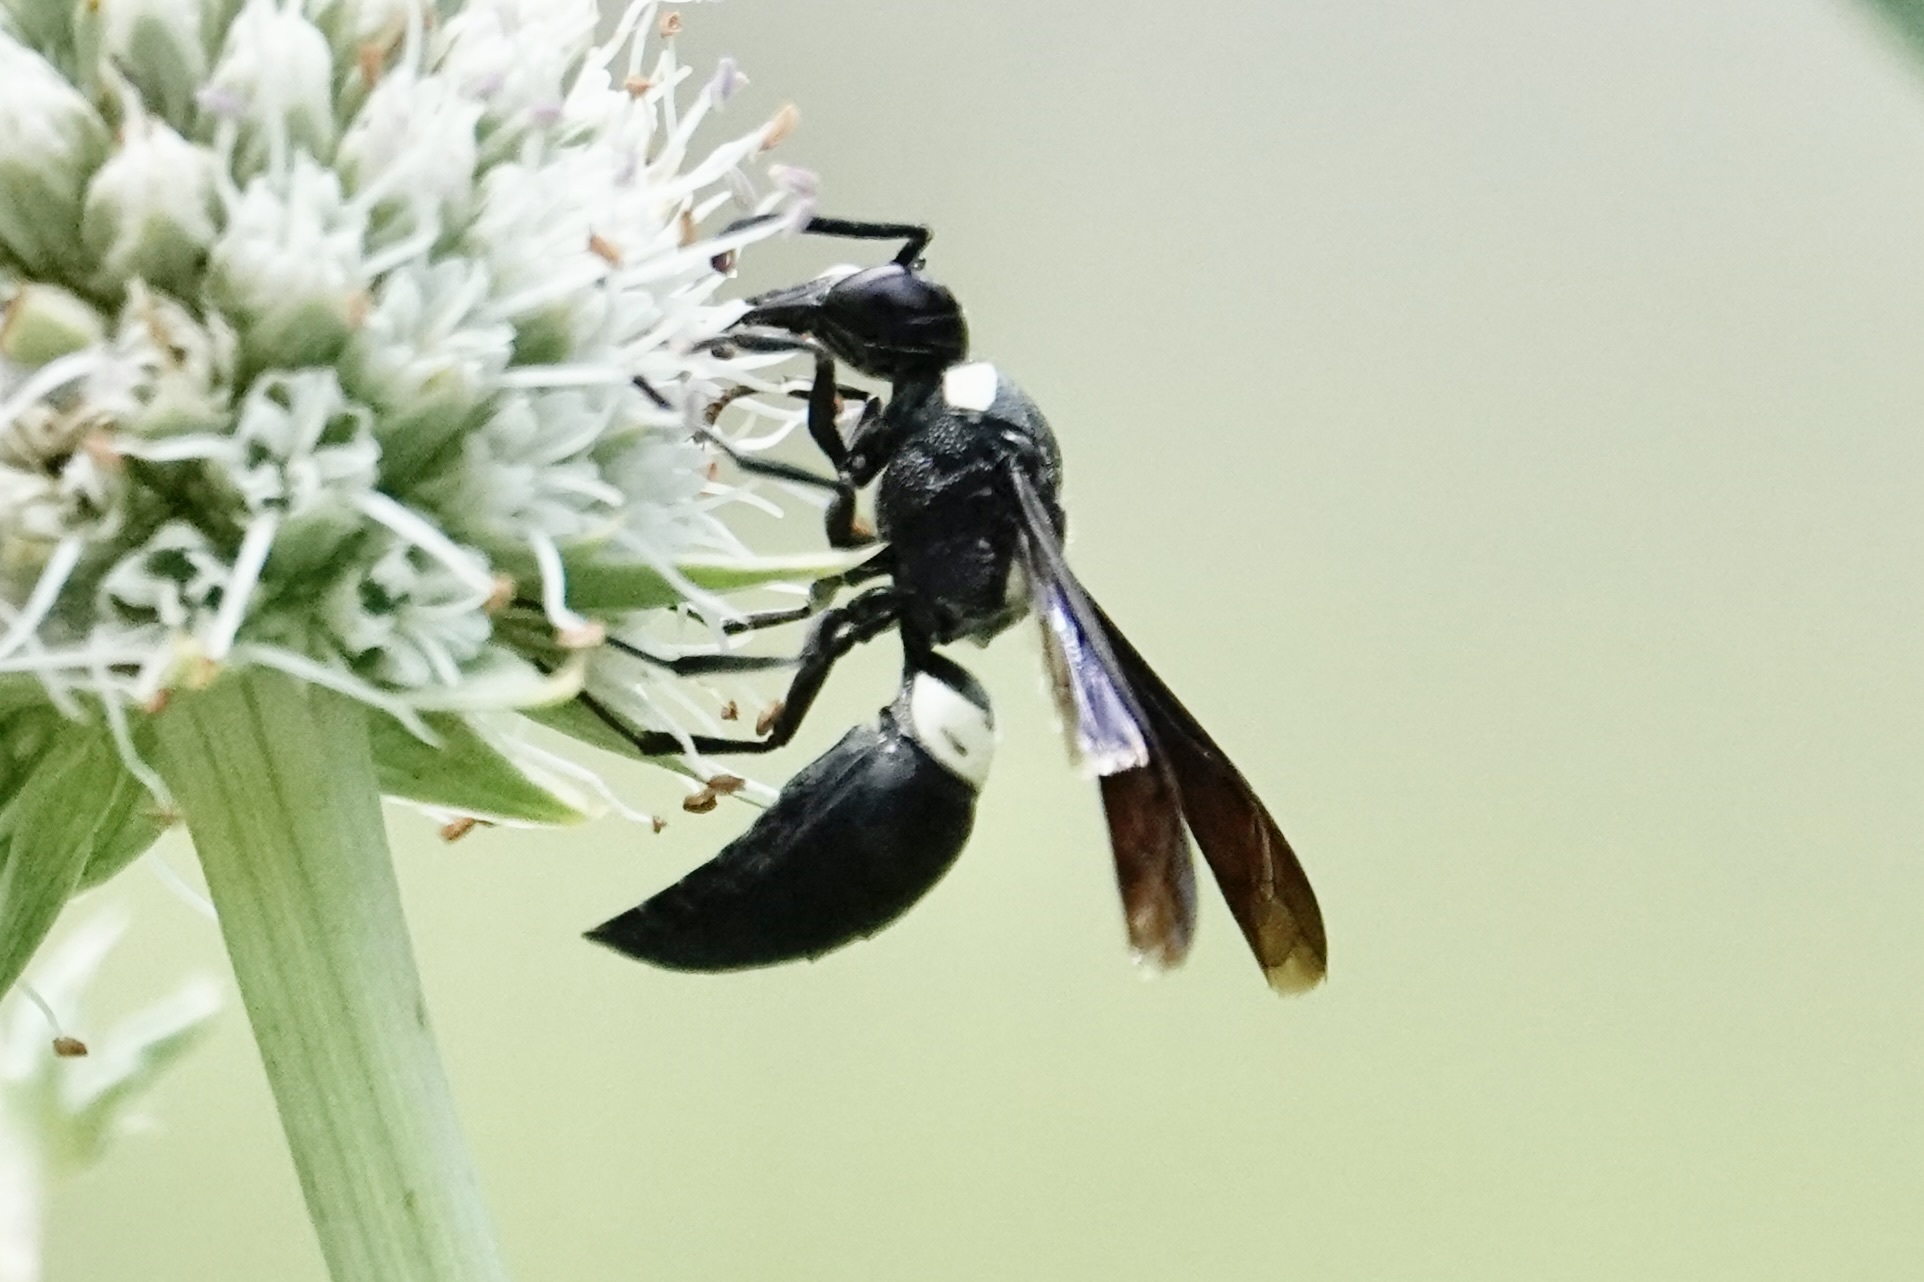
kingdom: Animalia
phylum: Arthropoda
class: Insecta
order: Hymenoptera
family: Eumenidae
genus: Monobia
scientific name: Monobia quadridens
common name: Four-toothed mason wasp
